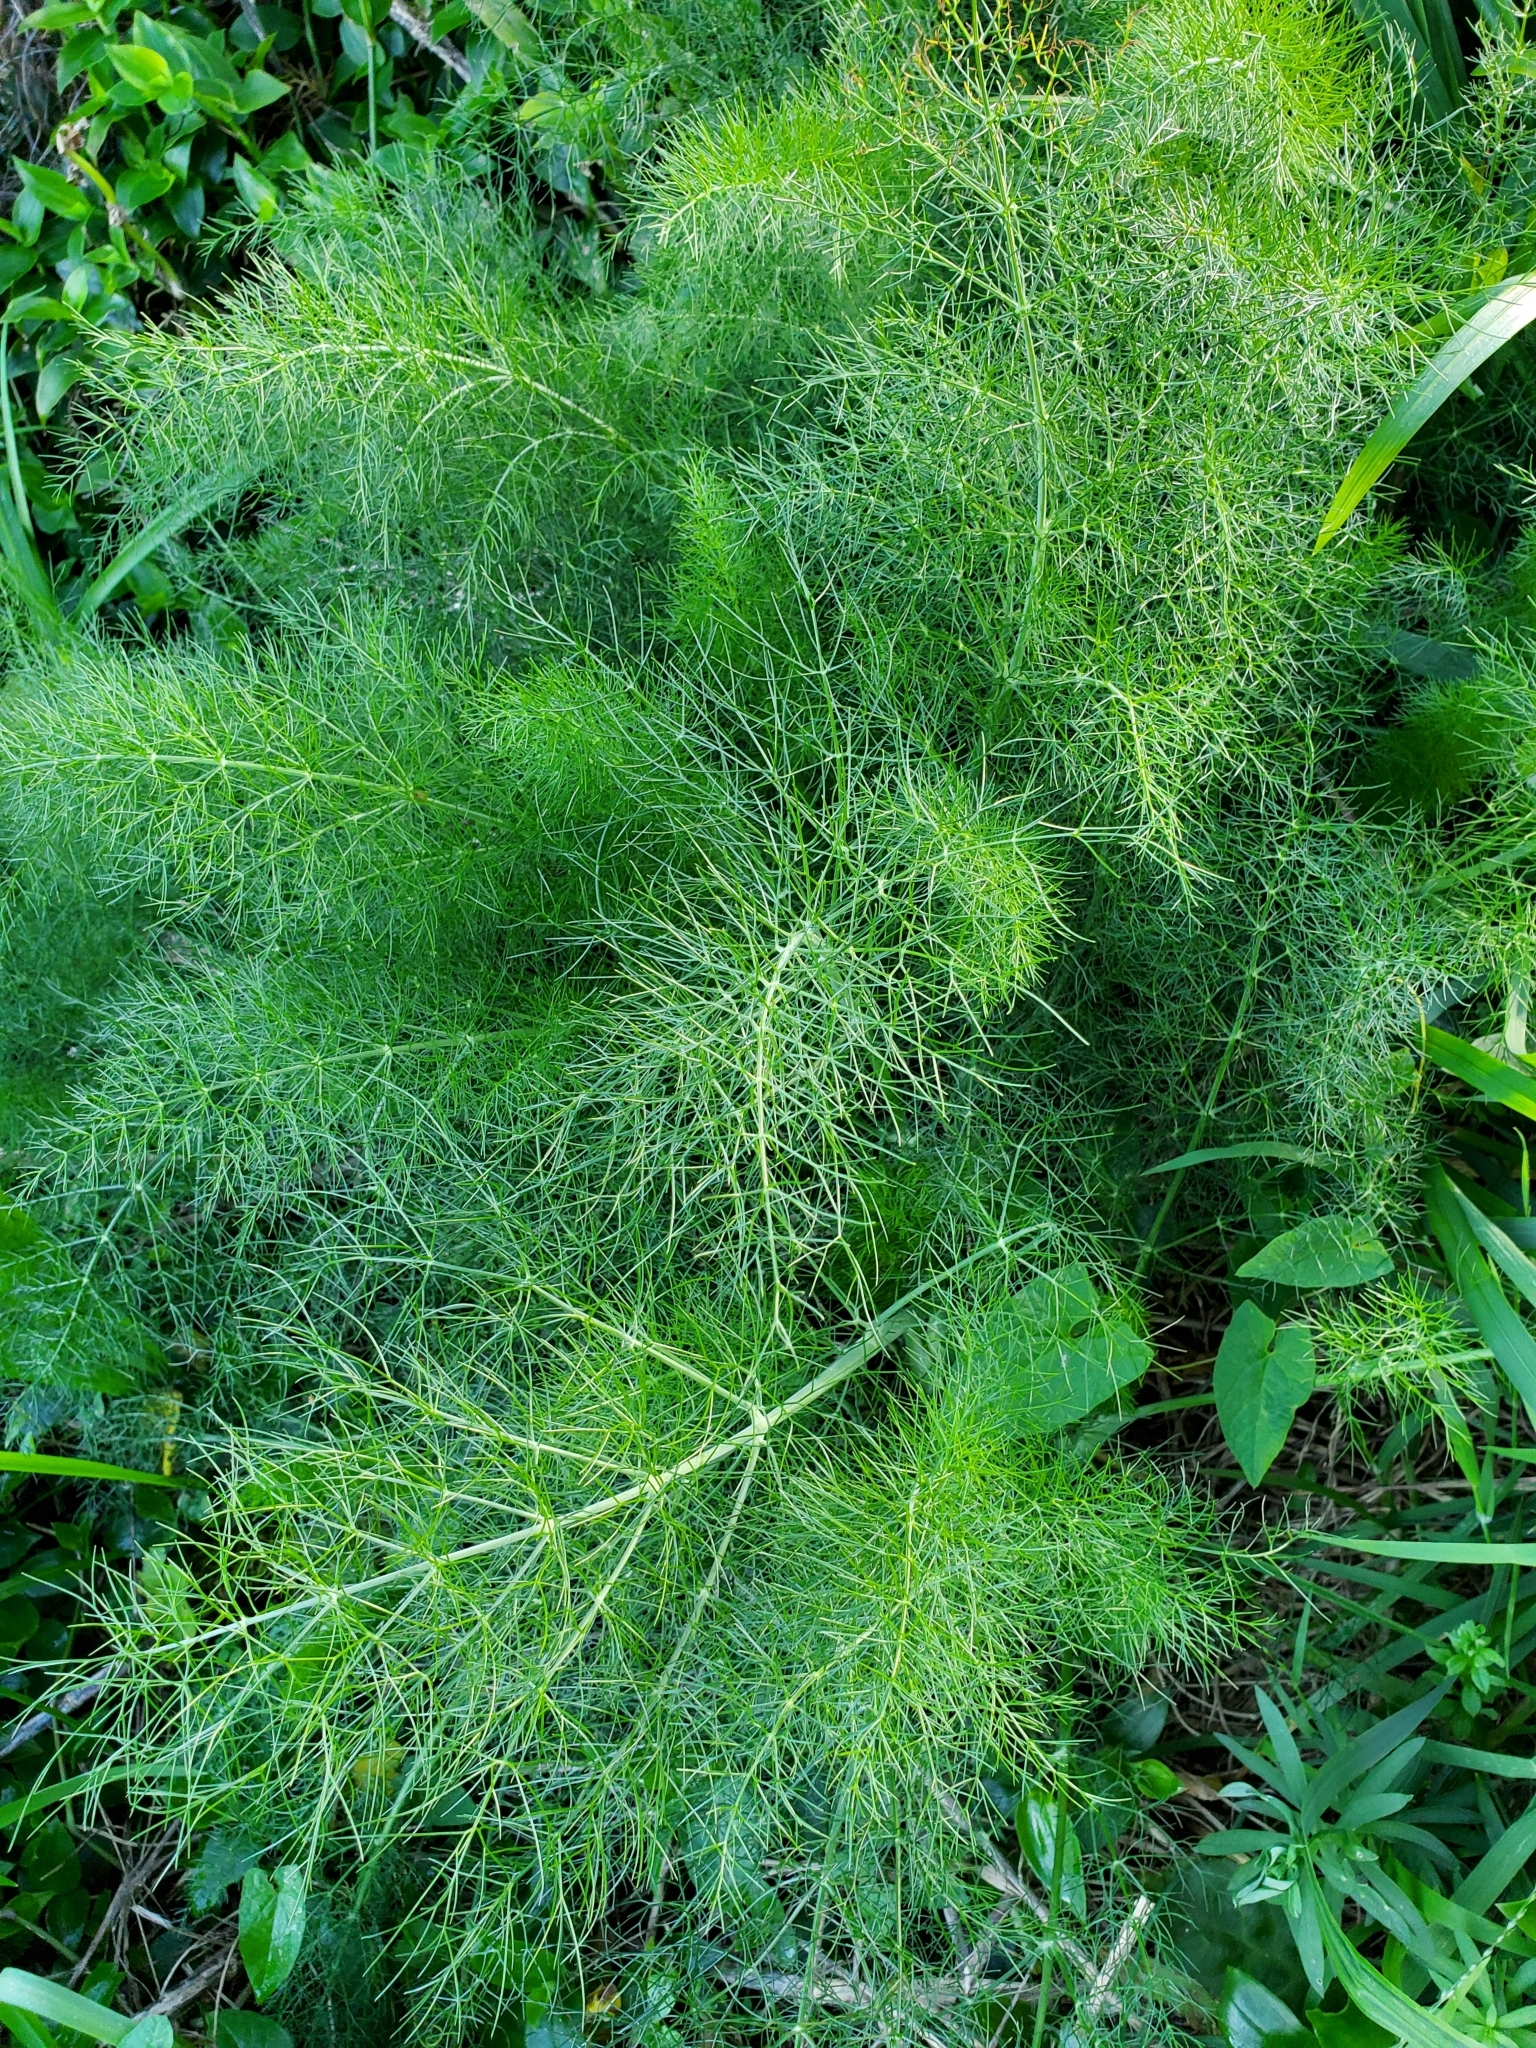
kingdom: Plantae
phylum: Tracheophyta
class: Magnoliopsida
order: Apiales
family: Apiaceae
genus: Foeniculum
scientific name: Foeniculum vulgare
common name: Fennel
